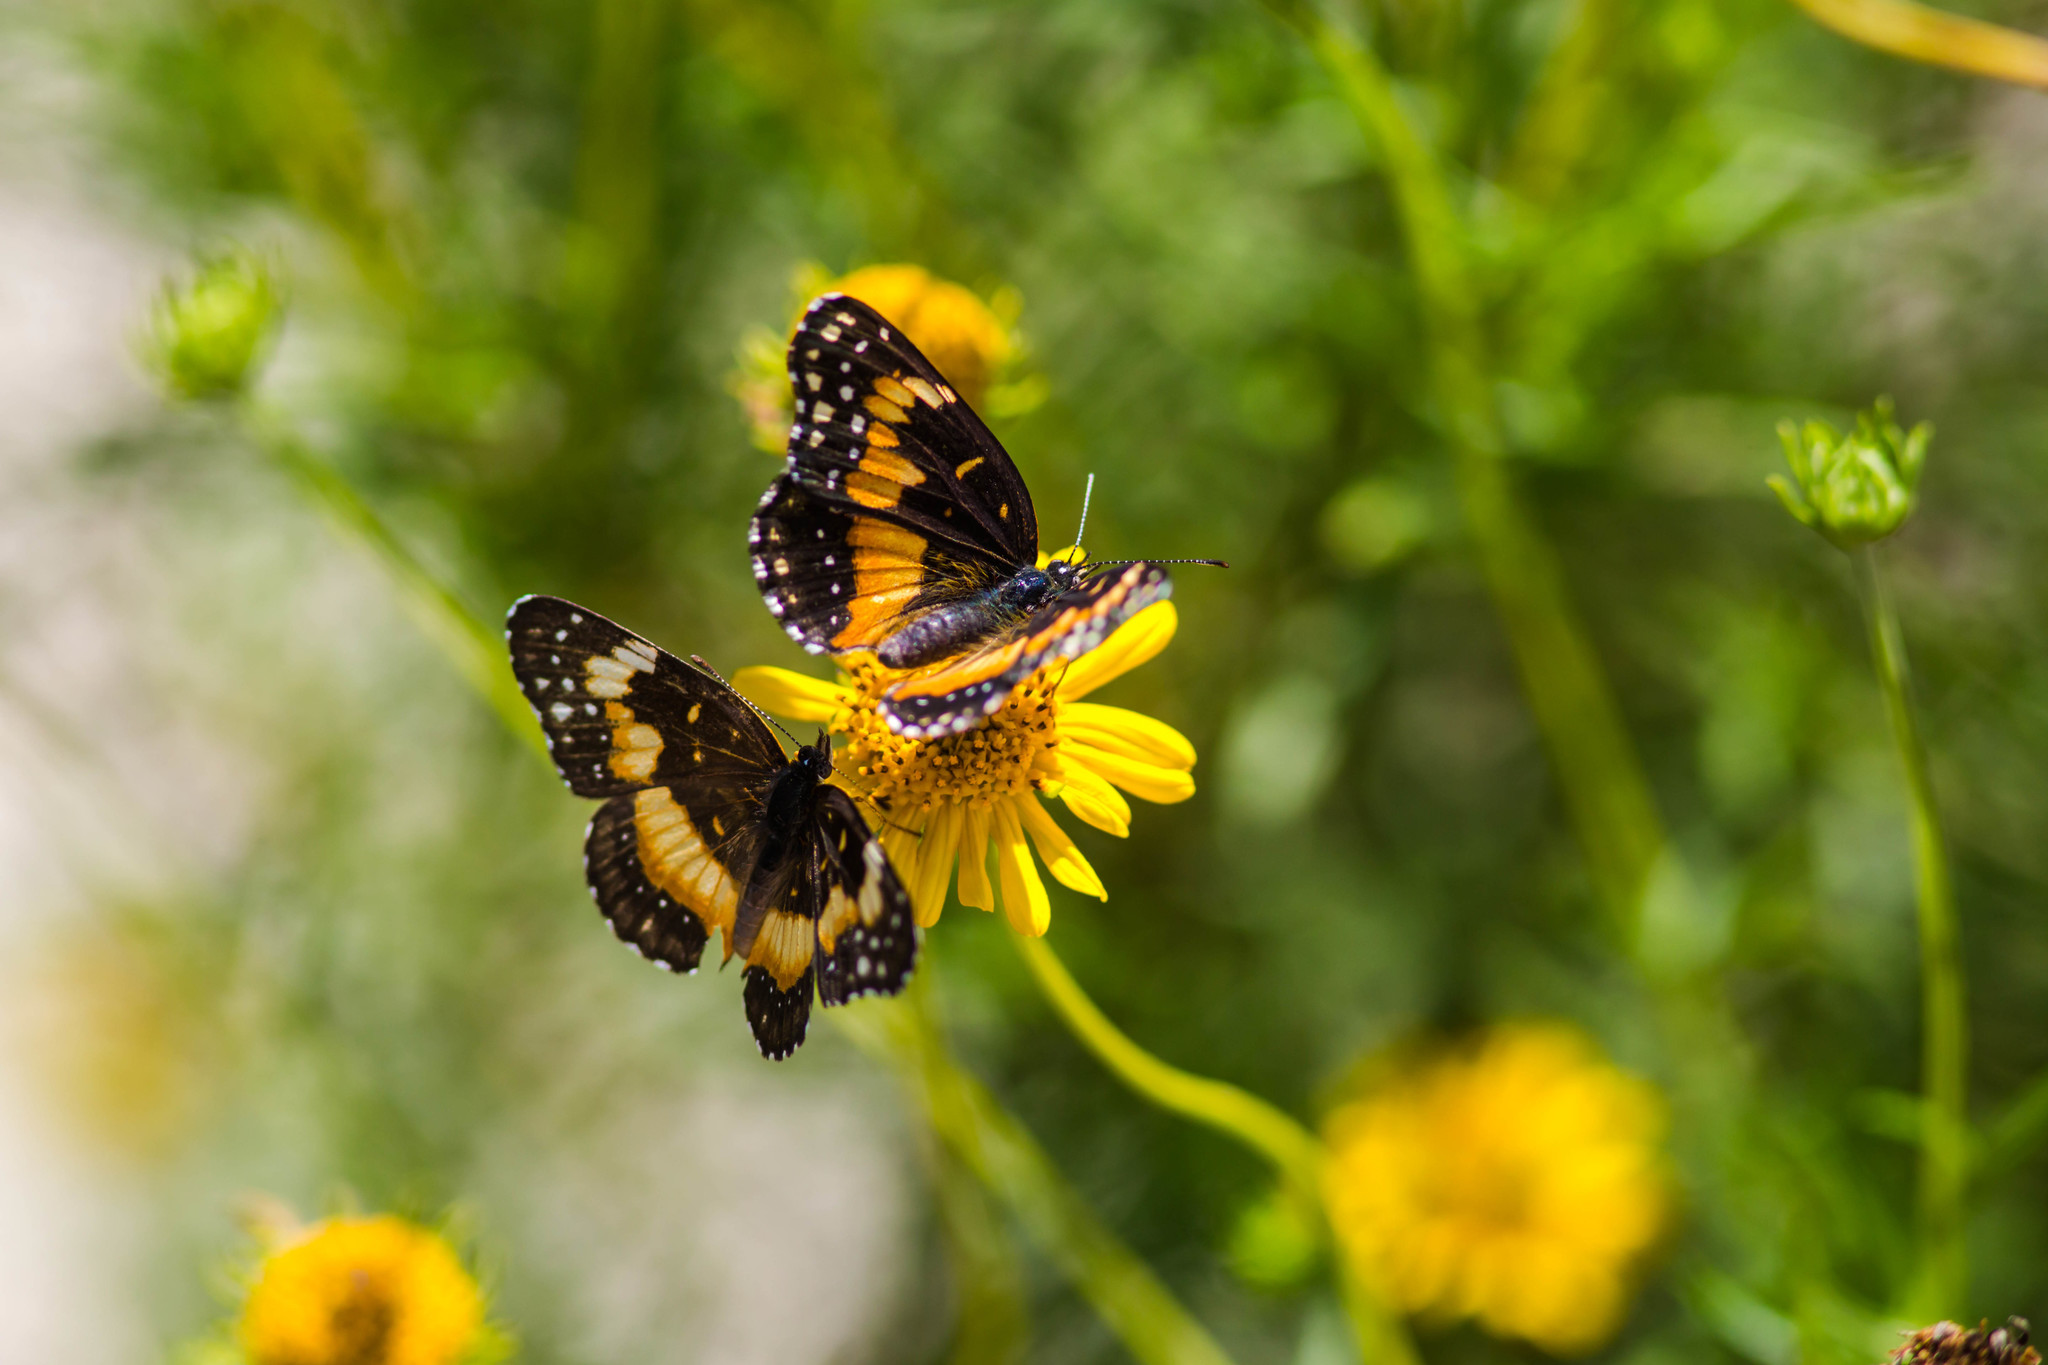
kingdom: Animalia
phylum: Arthropoda
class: Insecta
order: Lepidoptera
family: Nymphalidae
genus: Chlosyne
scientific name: Chlosyne lacinia
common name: Bordered patch
